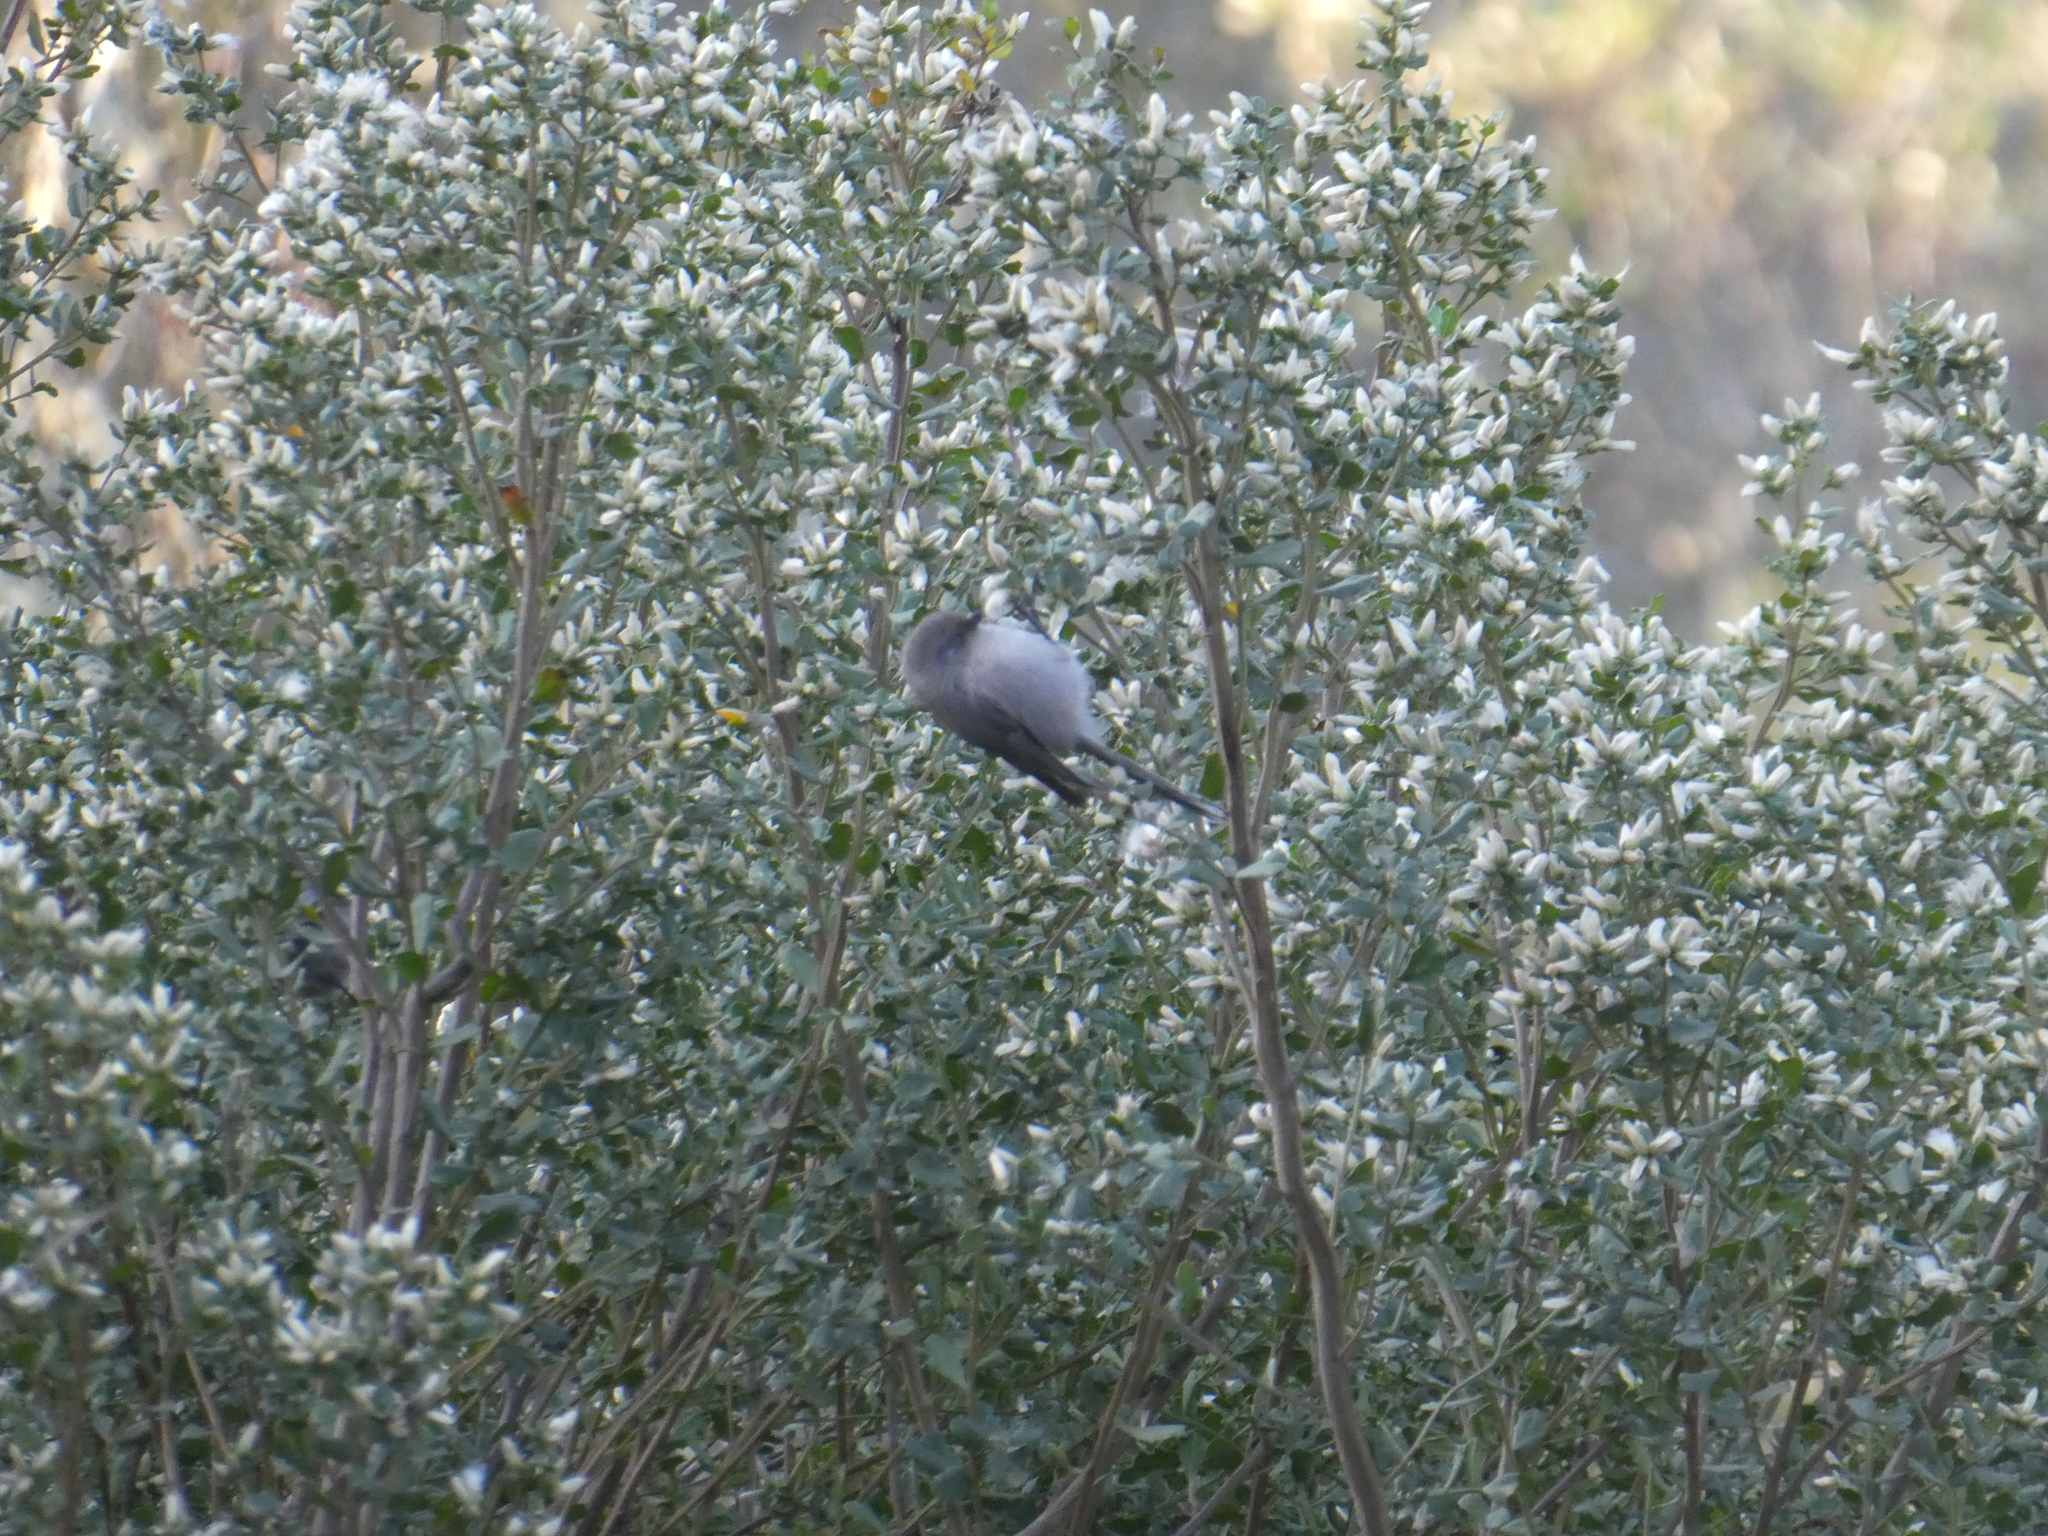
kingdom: Animalia
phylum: Chordata
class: Aves
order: Passeriformes
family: Aegithalidae
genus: Psaltriparus
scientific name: Psaltriparus minimus
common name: American bushtit
